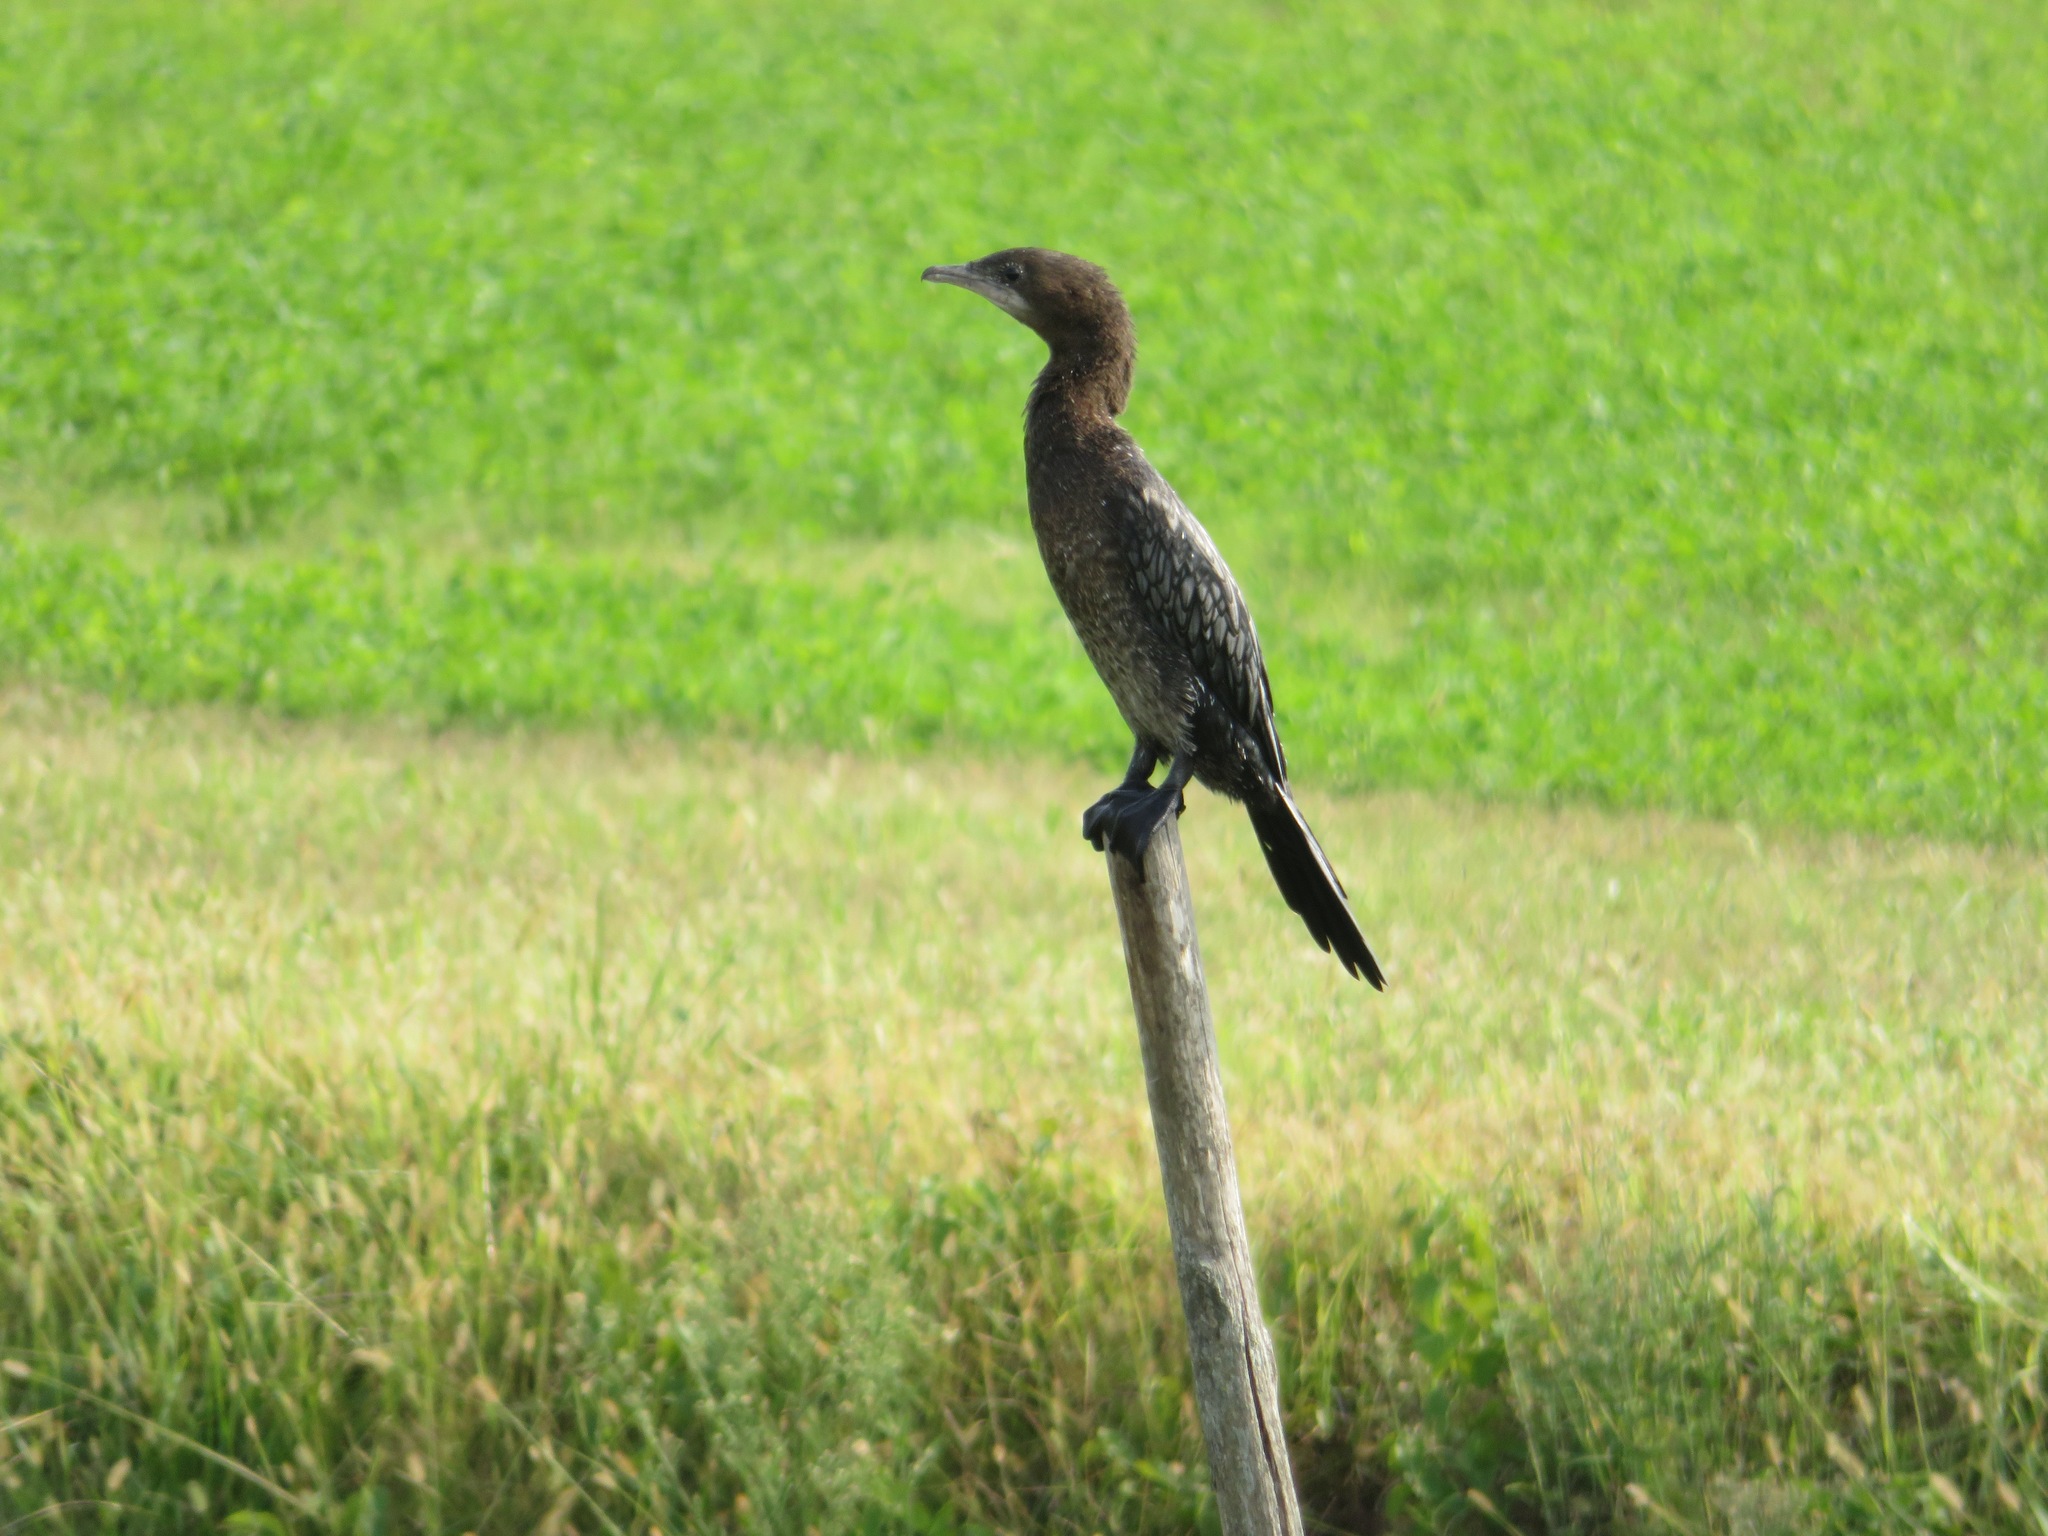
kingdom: Animalia
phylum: Chordata
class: Aves
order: Suliformes
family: Phalacrocoracidae
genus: Microcarbo
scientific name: Microcarbo pygmaeus
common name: Pygmy cormorant
